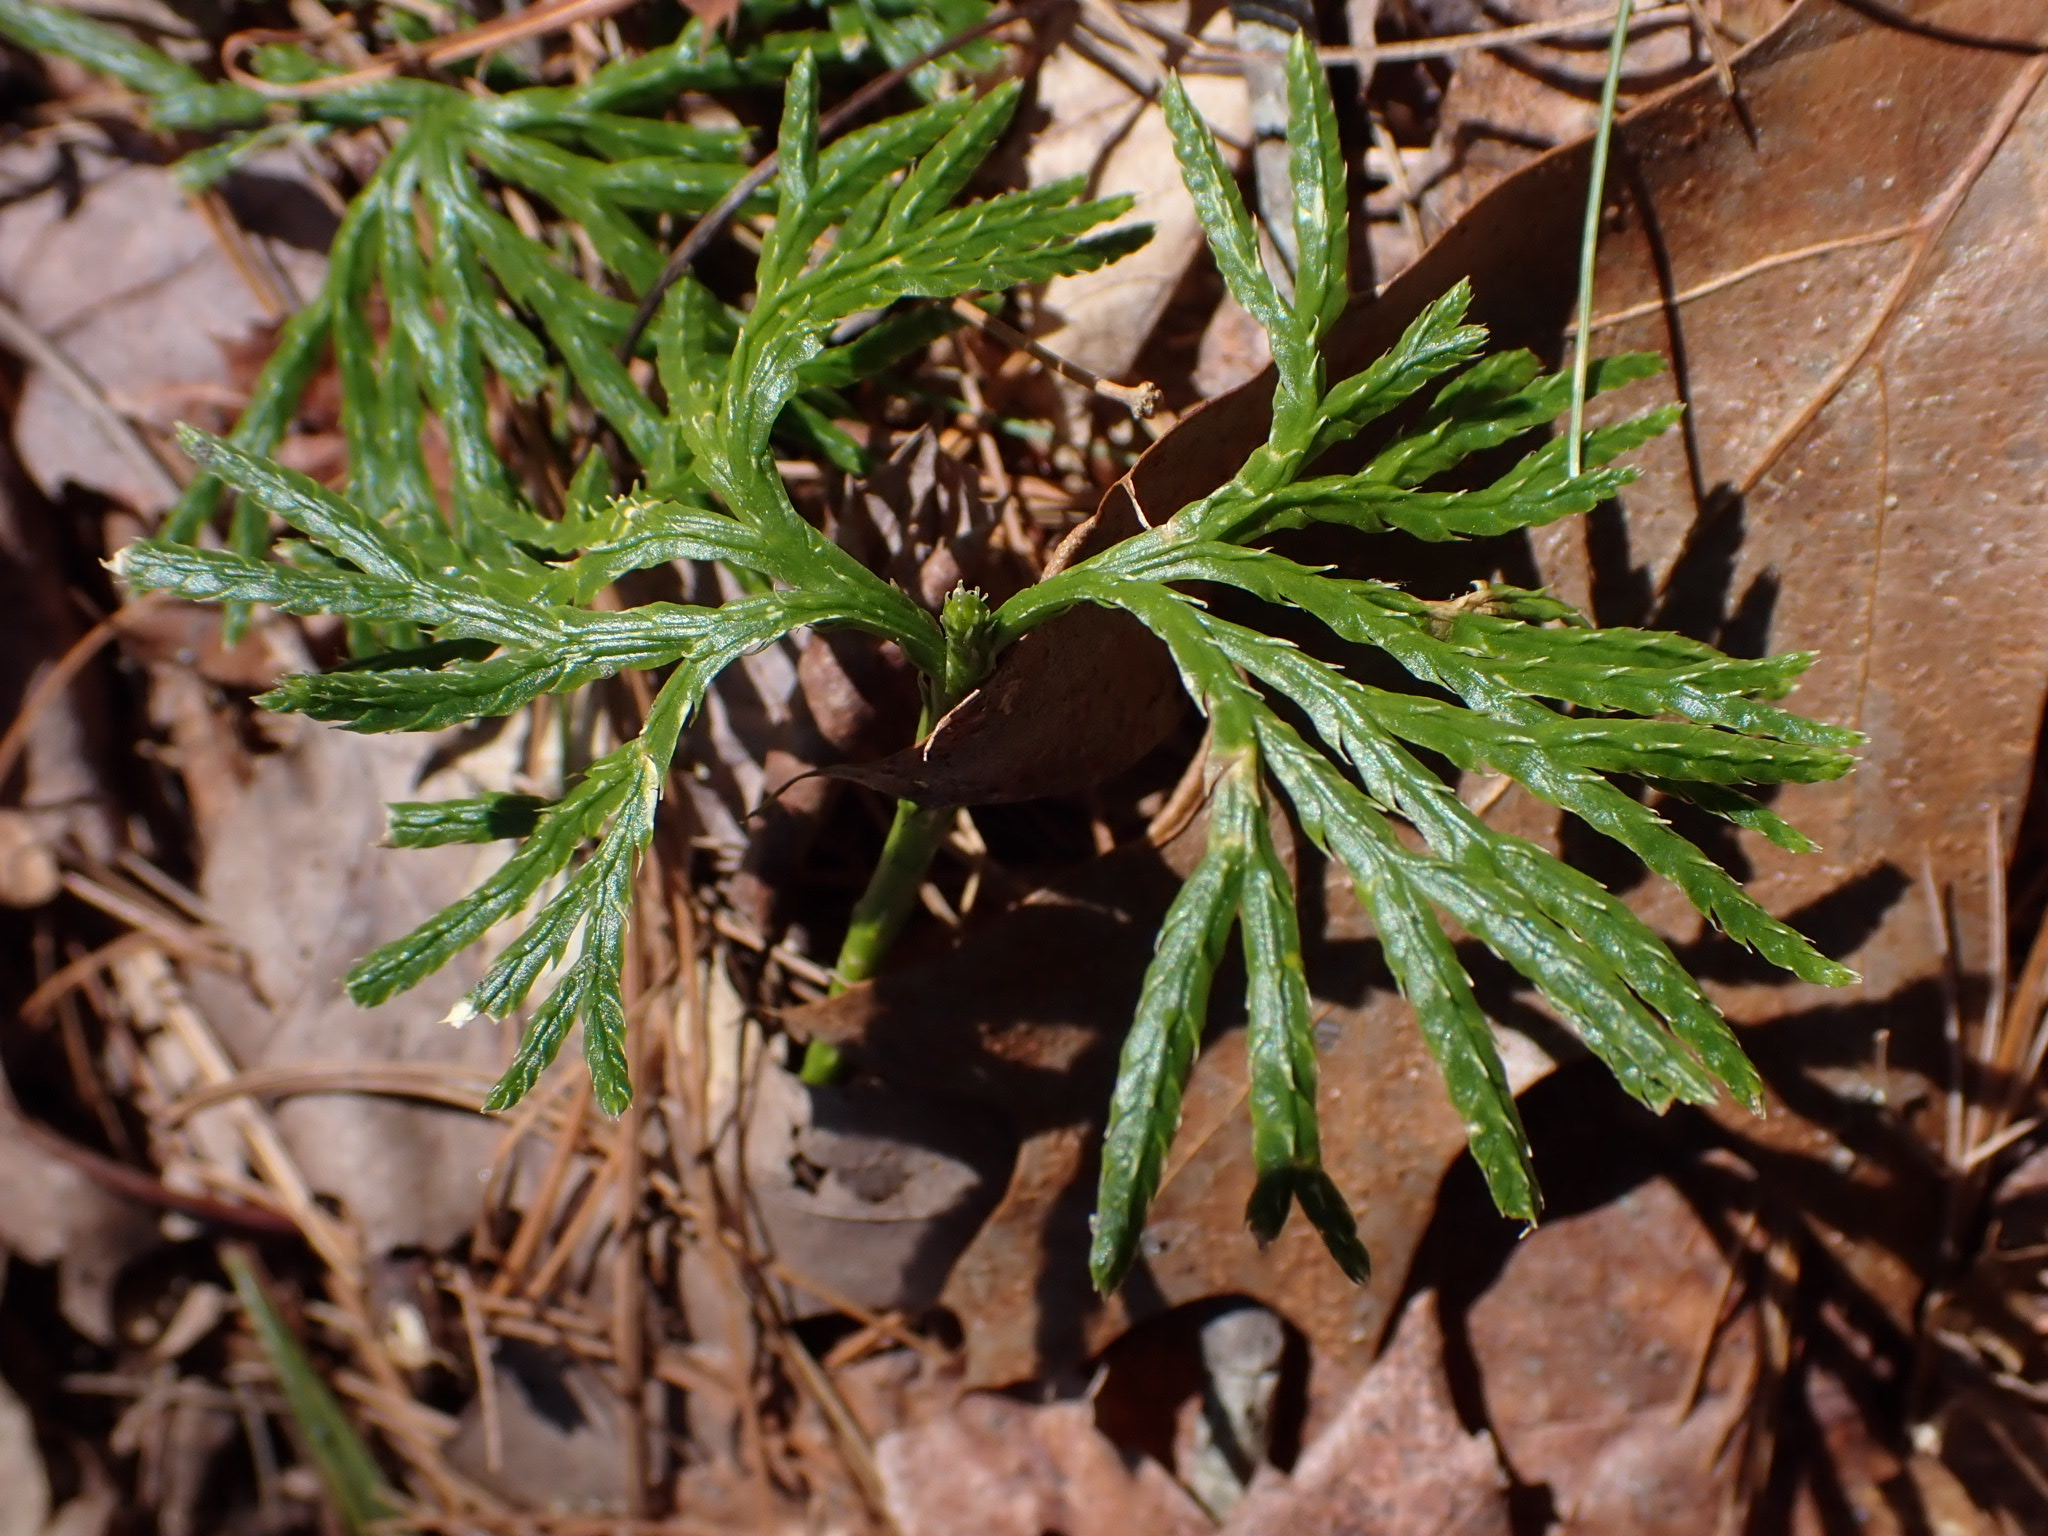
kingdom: Plantae
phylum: Tracheophyta
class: Lycopodiopsida
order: Lycopodiales
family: Lycopodiaceae
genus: Diphasiastrum
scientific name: Diphasiastrum digitatum
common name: Southern running-pine
